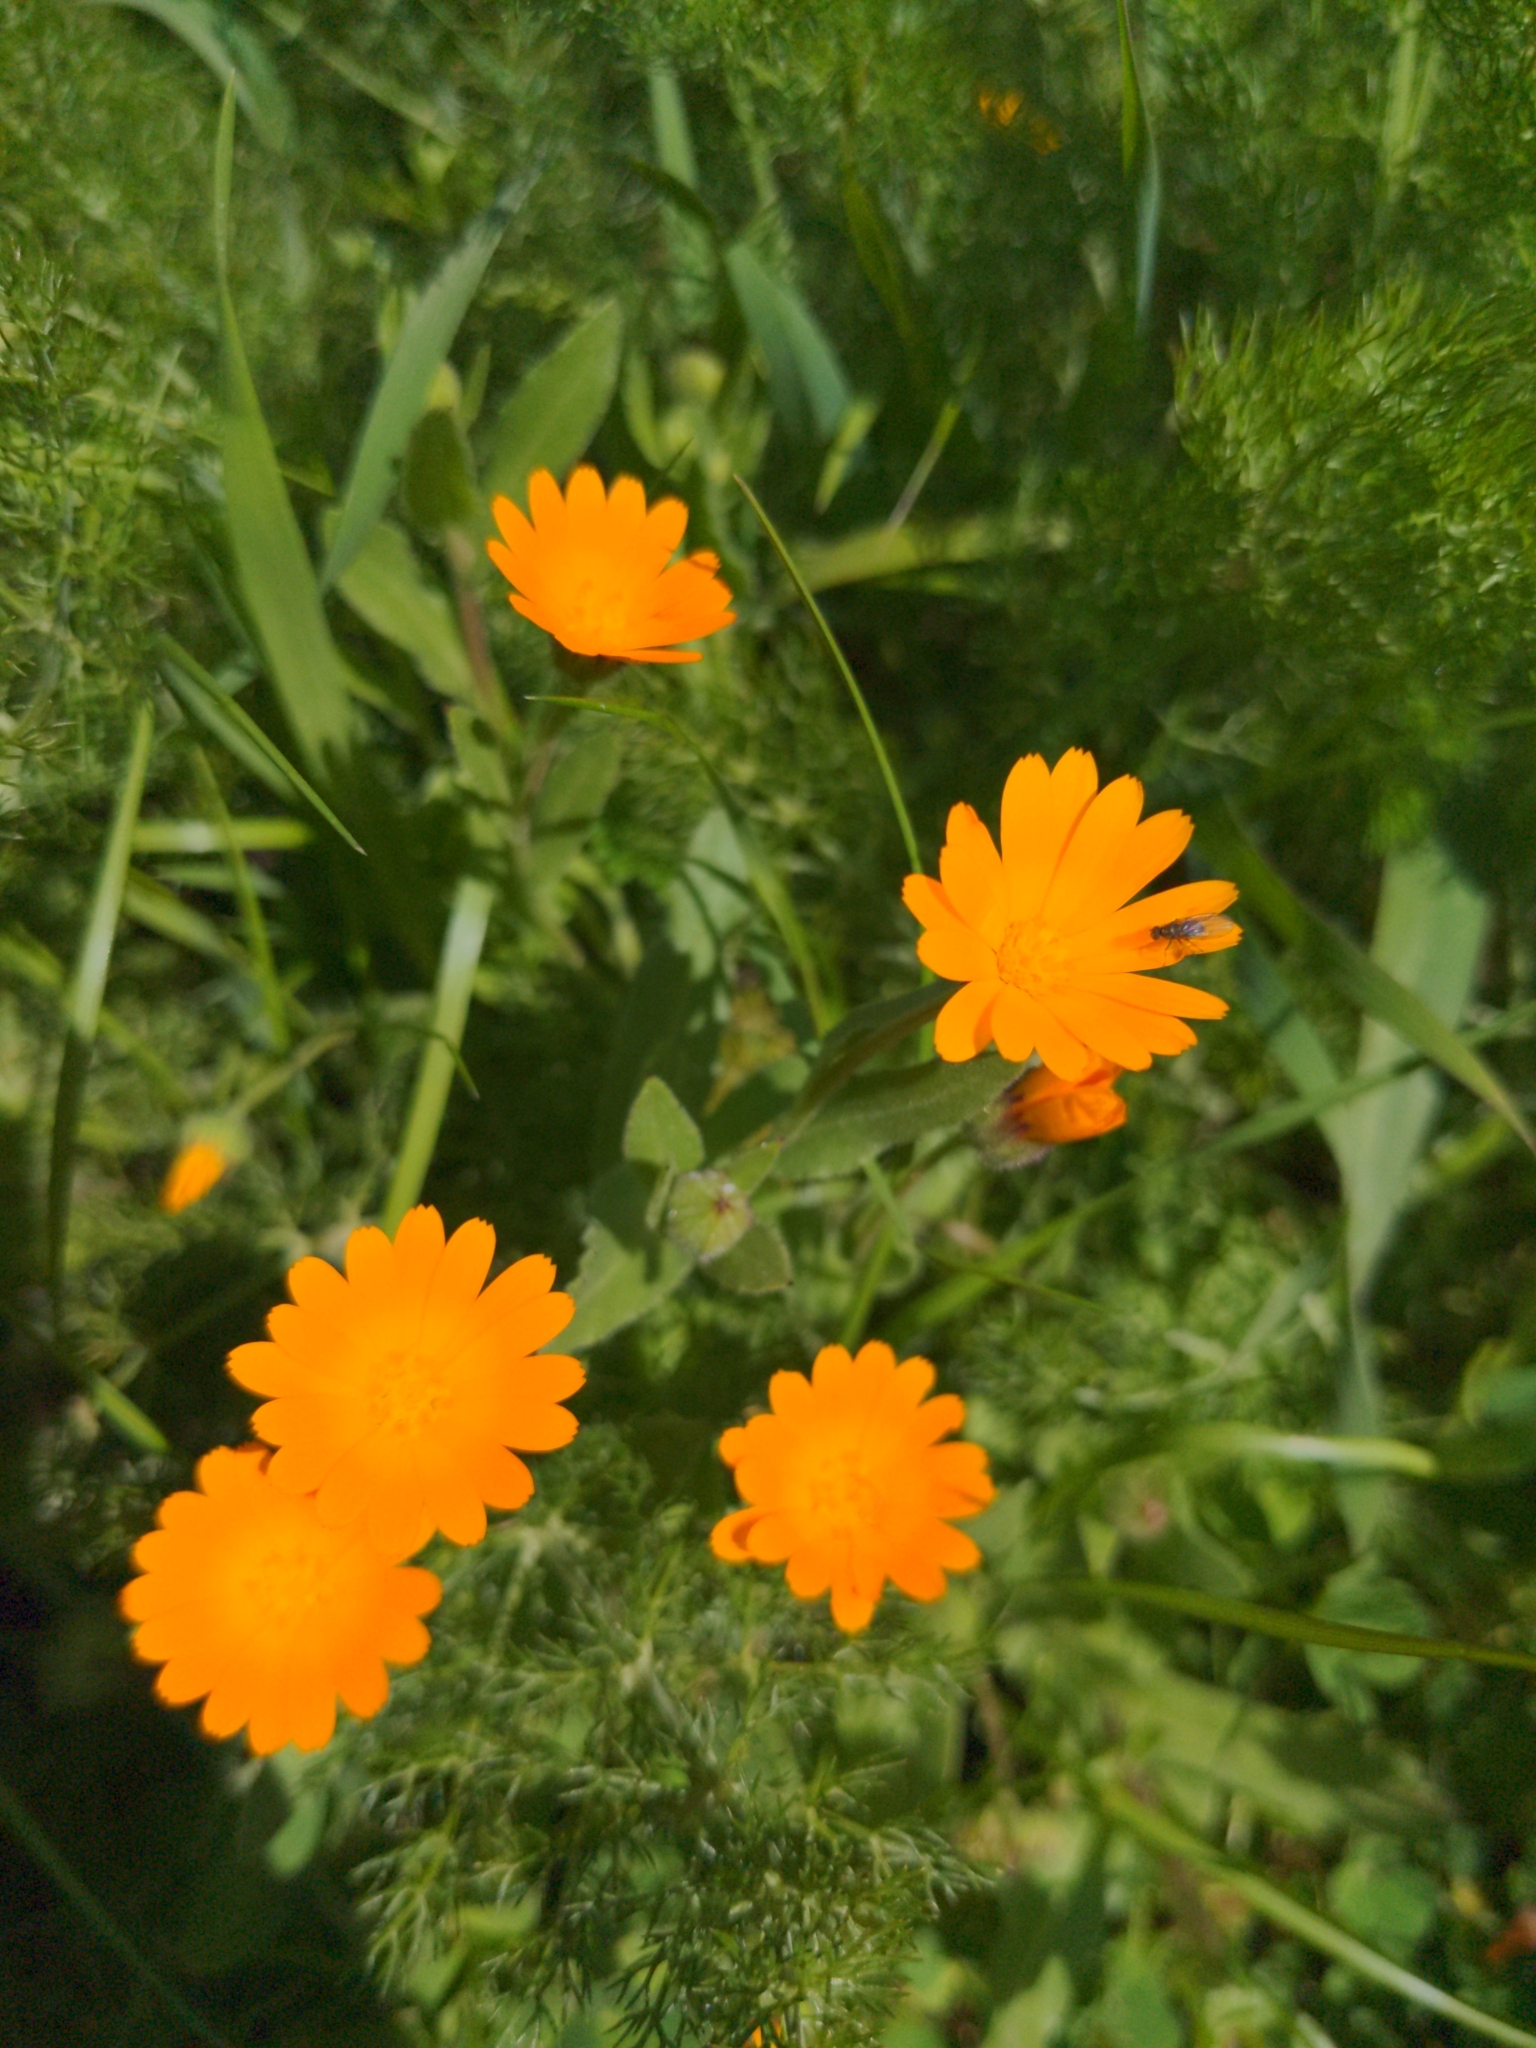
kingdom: Plantae
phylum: Tracheophyta
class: Magnoliopsida
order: Asterales
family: Asteraceae
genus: Calendula
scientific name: Calendula arvensis
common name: Field marigold
